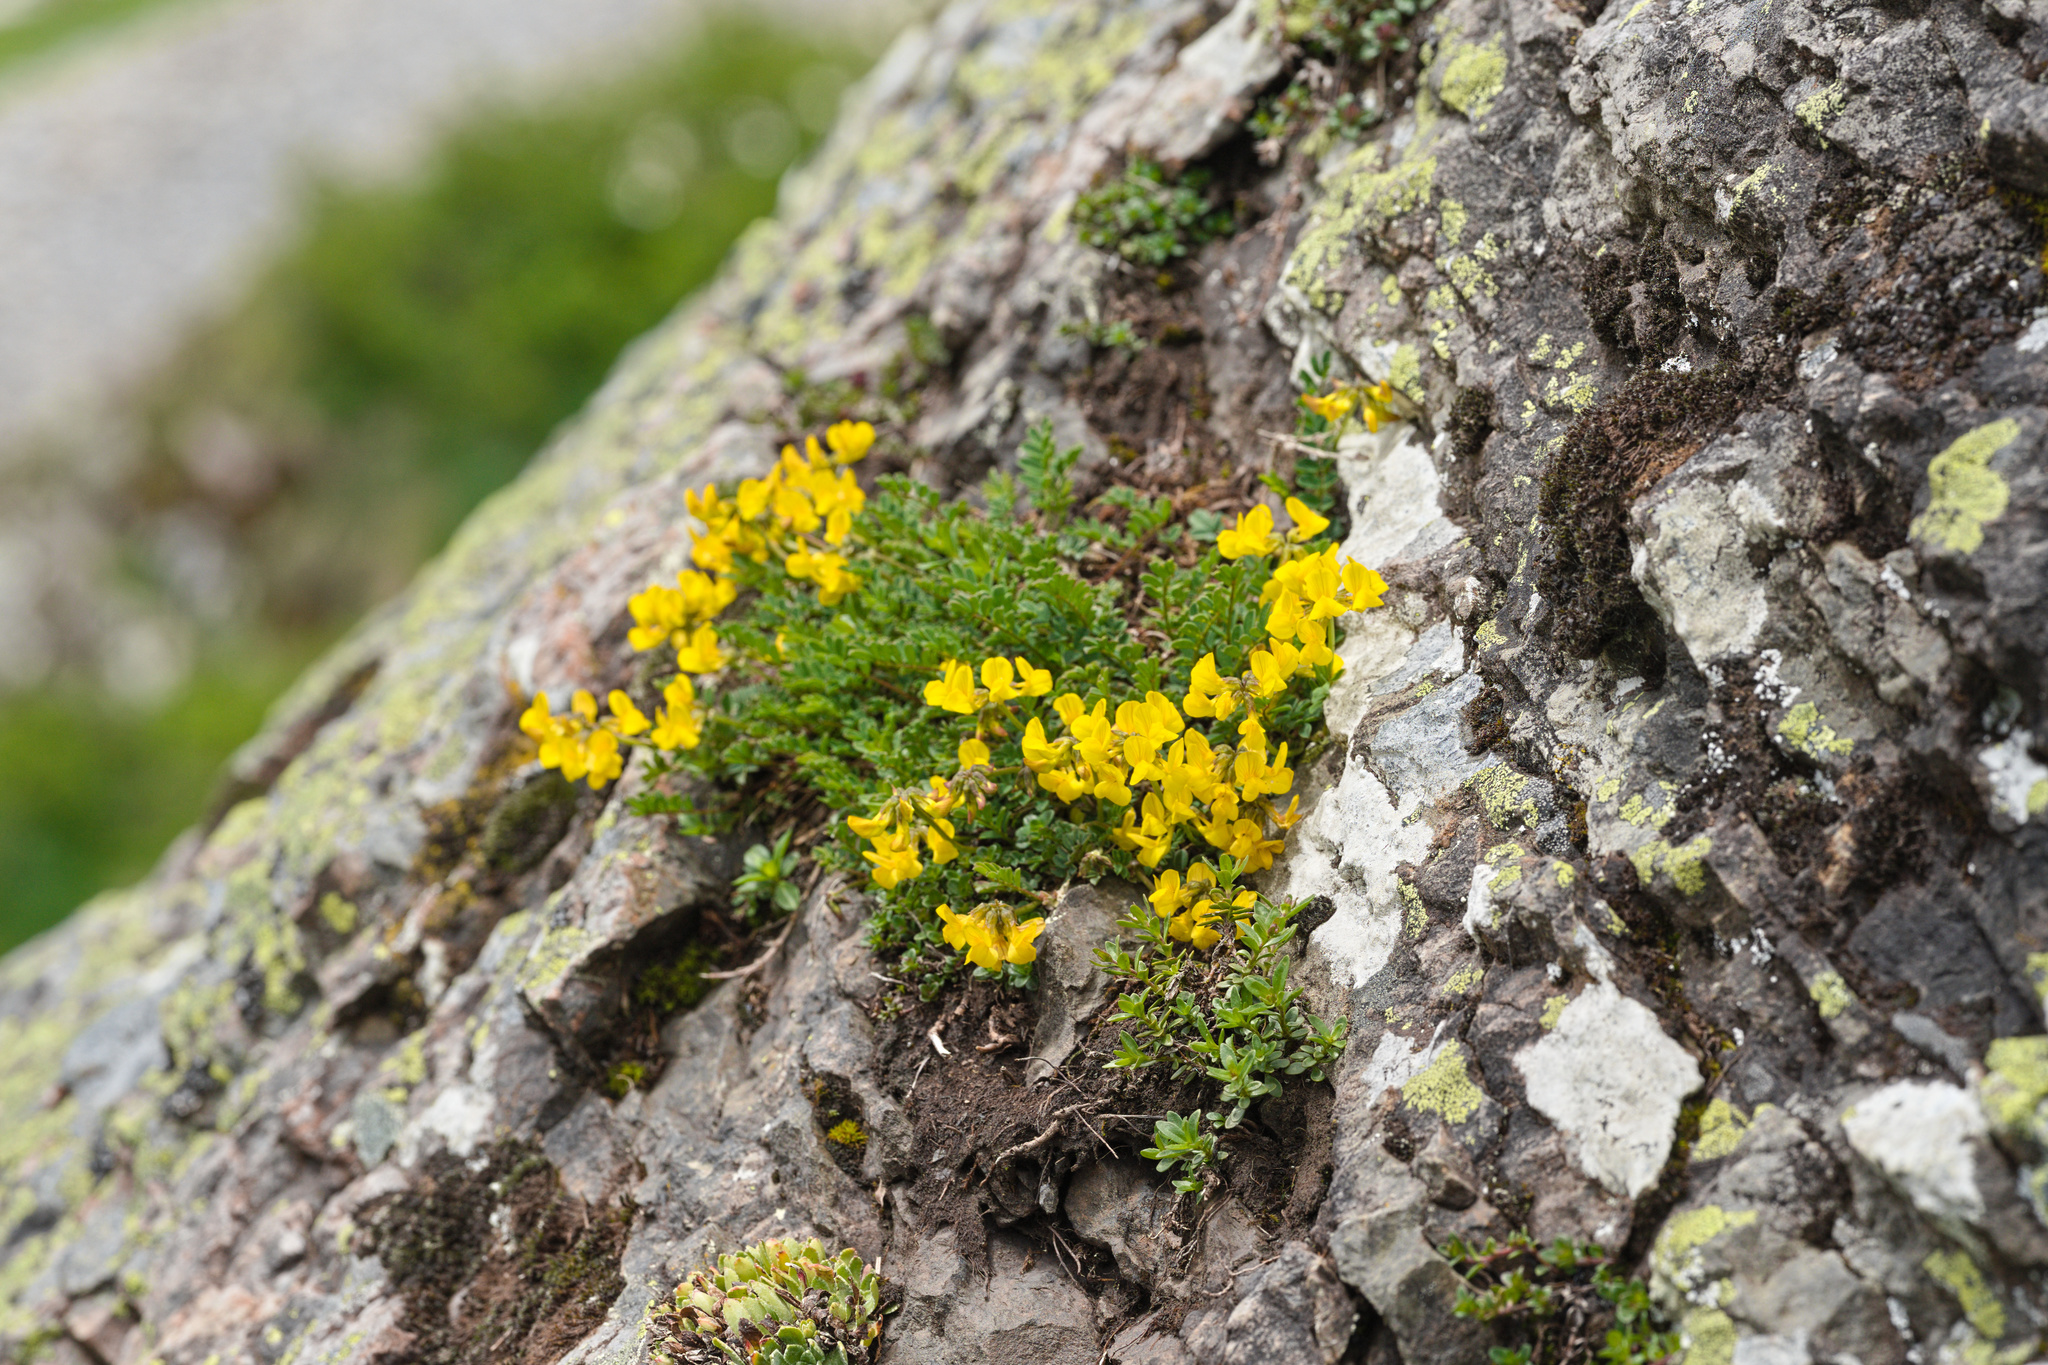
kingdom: Plantae
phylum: Tracheophyta
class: Magnoliopsida
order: Fabales
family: Fabaceae
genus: Hippocrepis
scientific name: Hippocrepis comosa
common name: Horseshoe vetch
